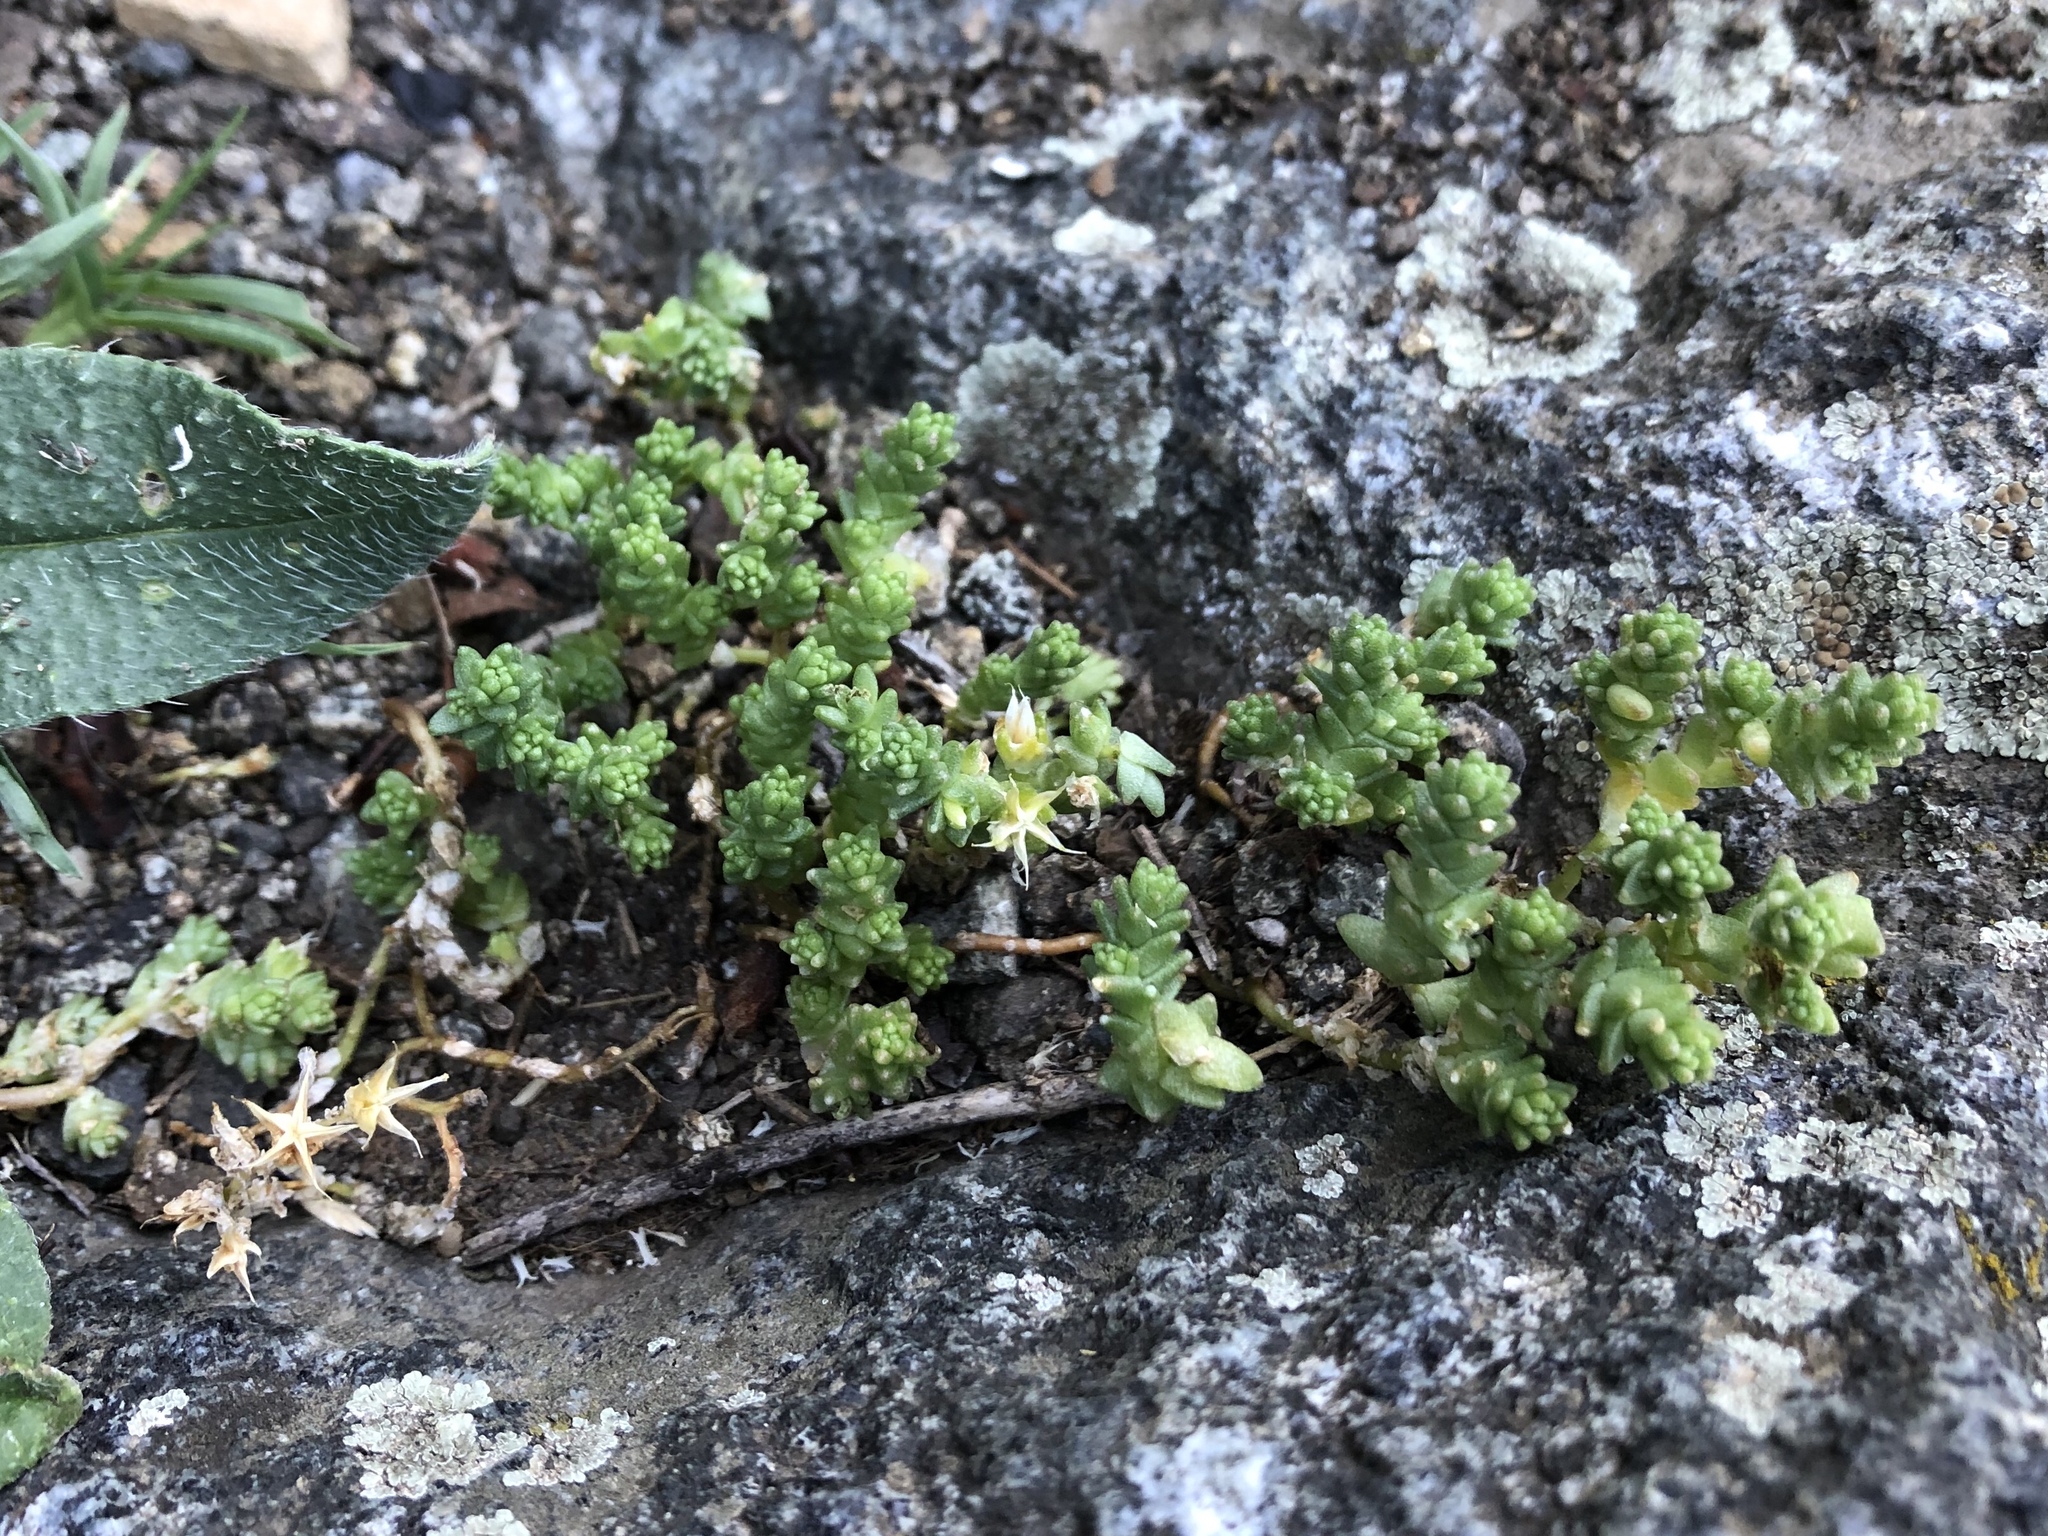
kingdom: Plantae
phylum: Tracheophyta
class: Magnoliopsida
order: Saxifragales
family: Crassulaceae
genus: Sedum
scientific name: Sedum acre
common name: Biting stonecrop
